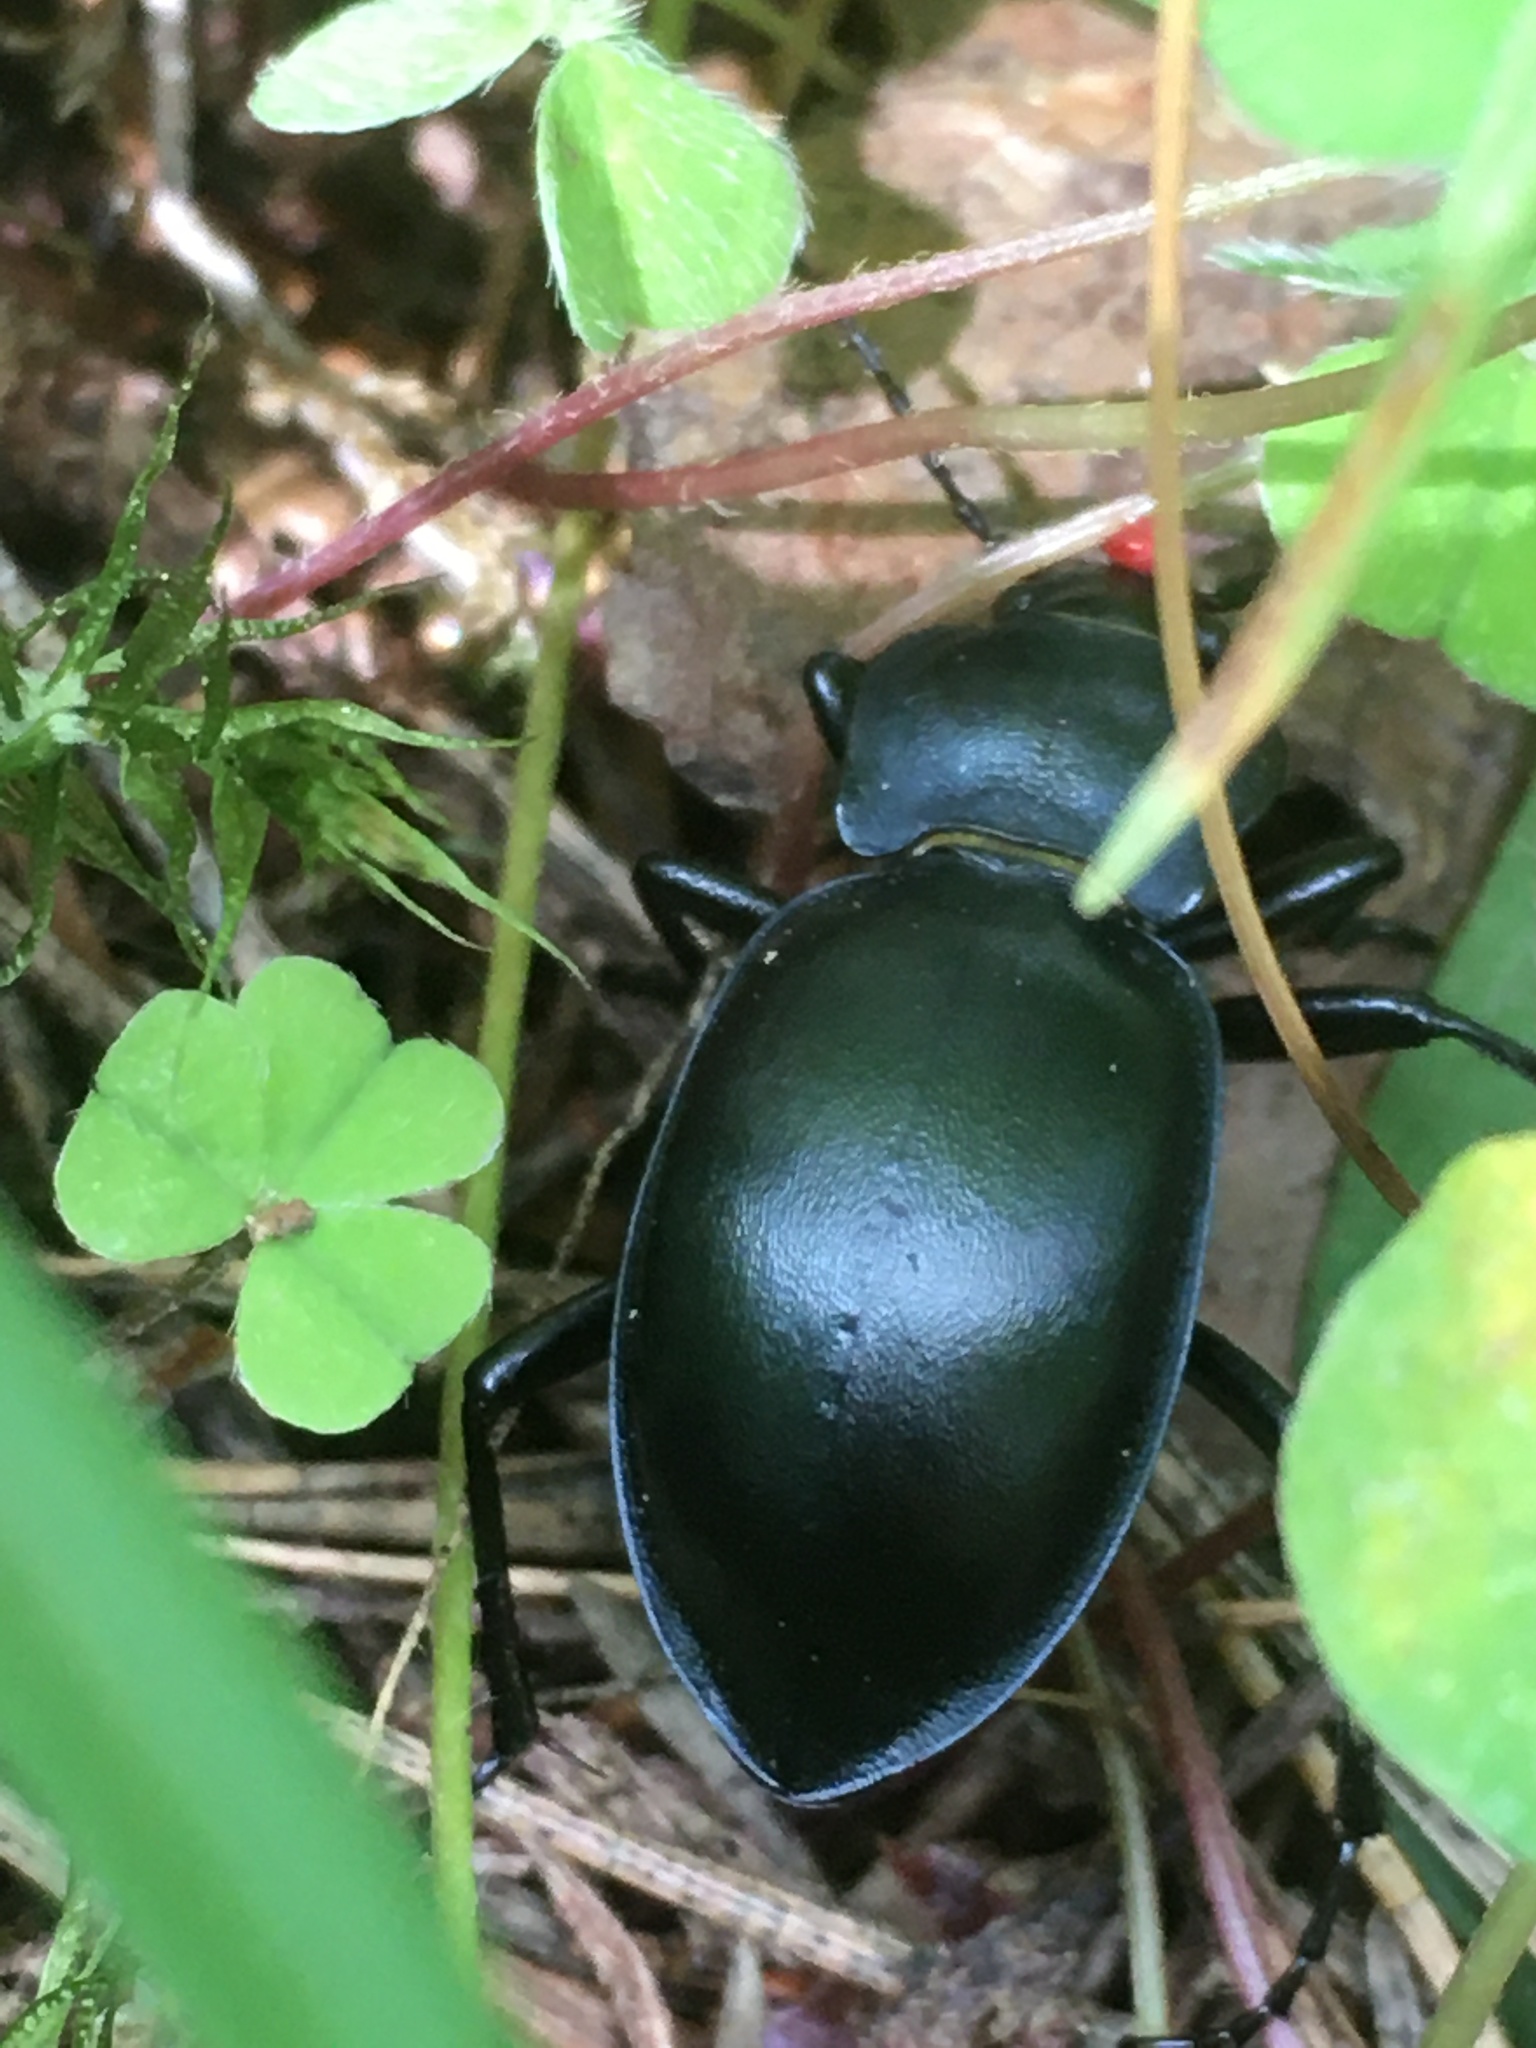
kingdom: Animalia
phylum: Arthropoda
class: Insecta
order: Coleoptera
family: Carabidae
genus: Carabus
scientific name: Carabus glabratus
